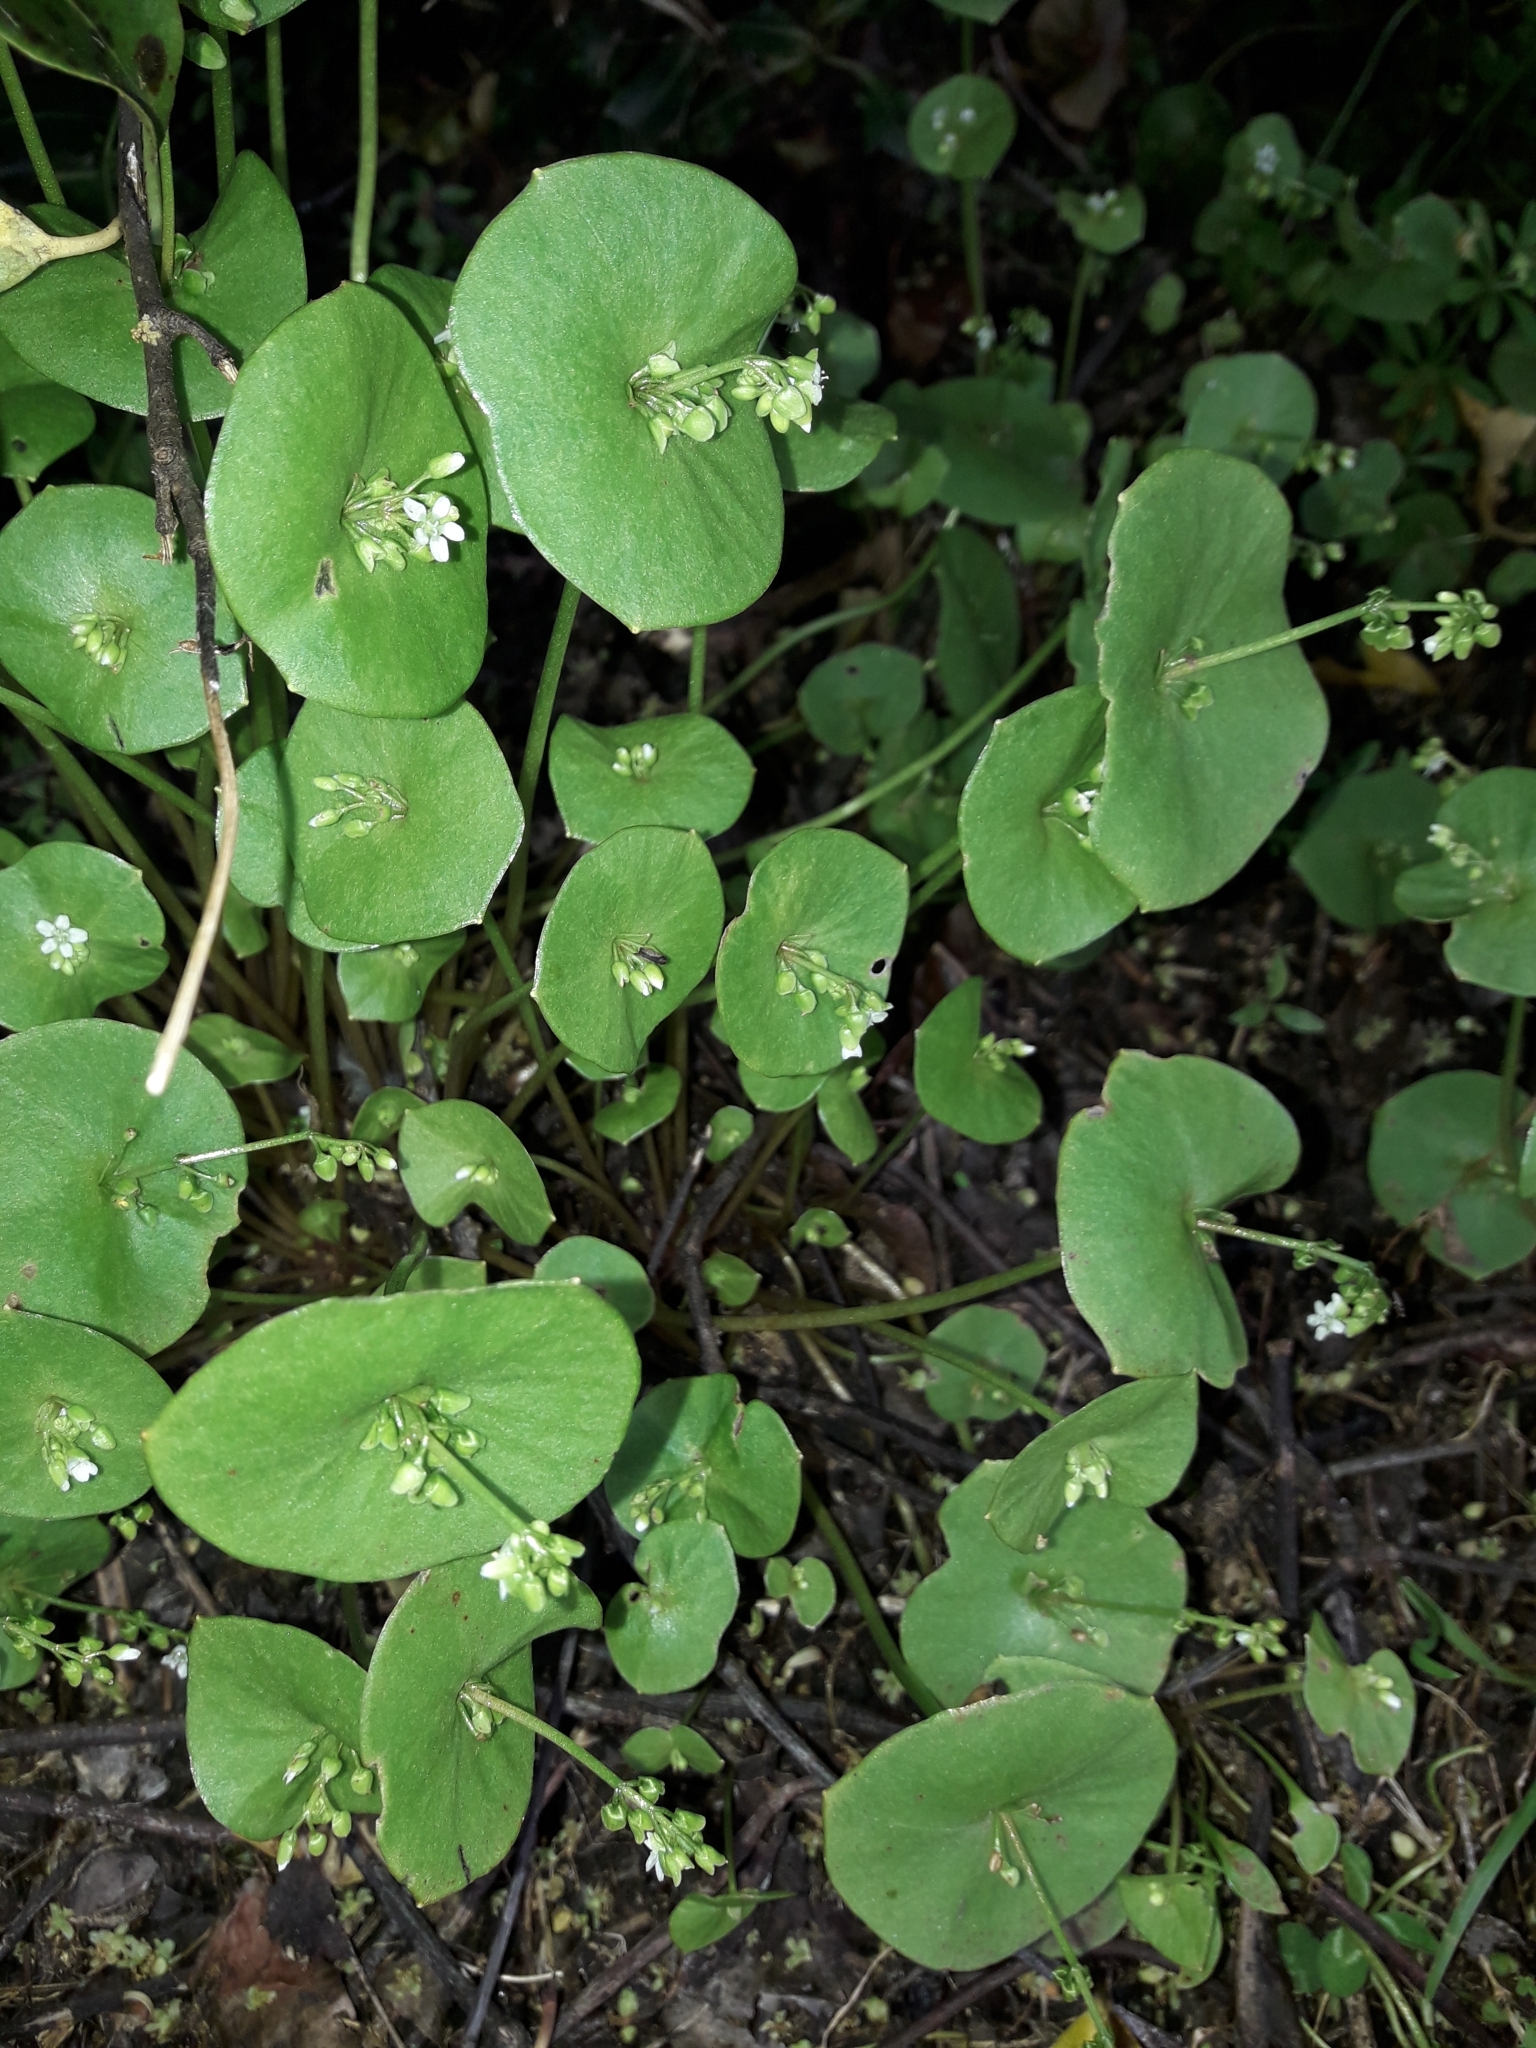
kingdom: Plantae
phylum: Tracheophyta
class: Magnoliopsida
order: Caryophyllales
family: Montiaceae
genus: Claytonia
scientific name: Claytonia perfoliata
